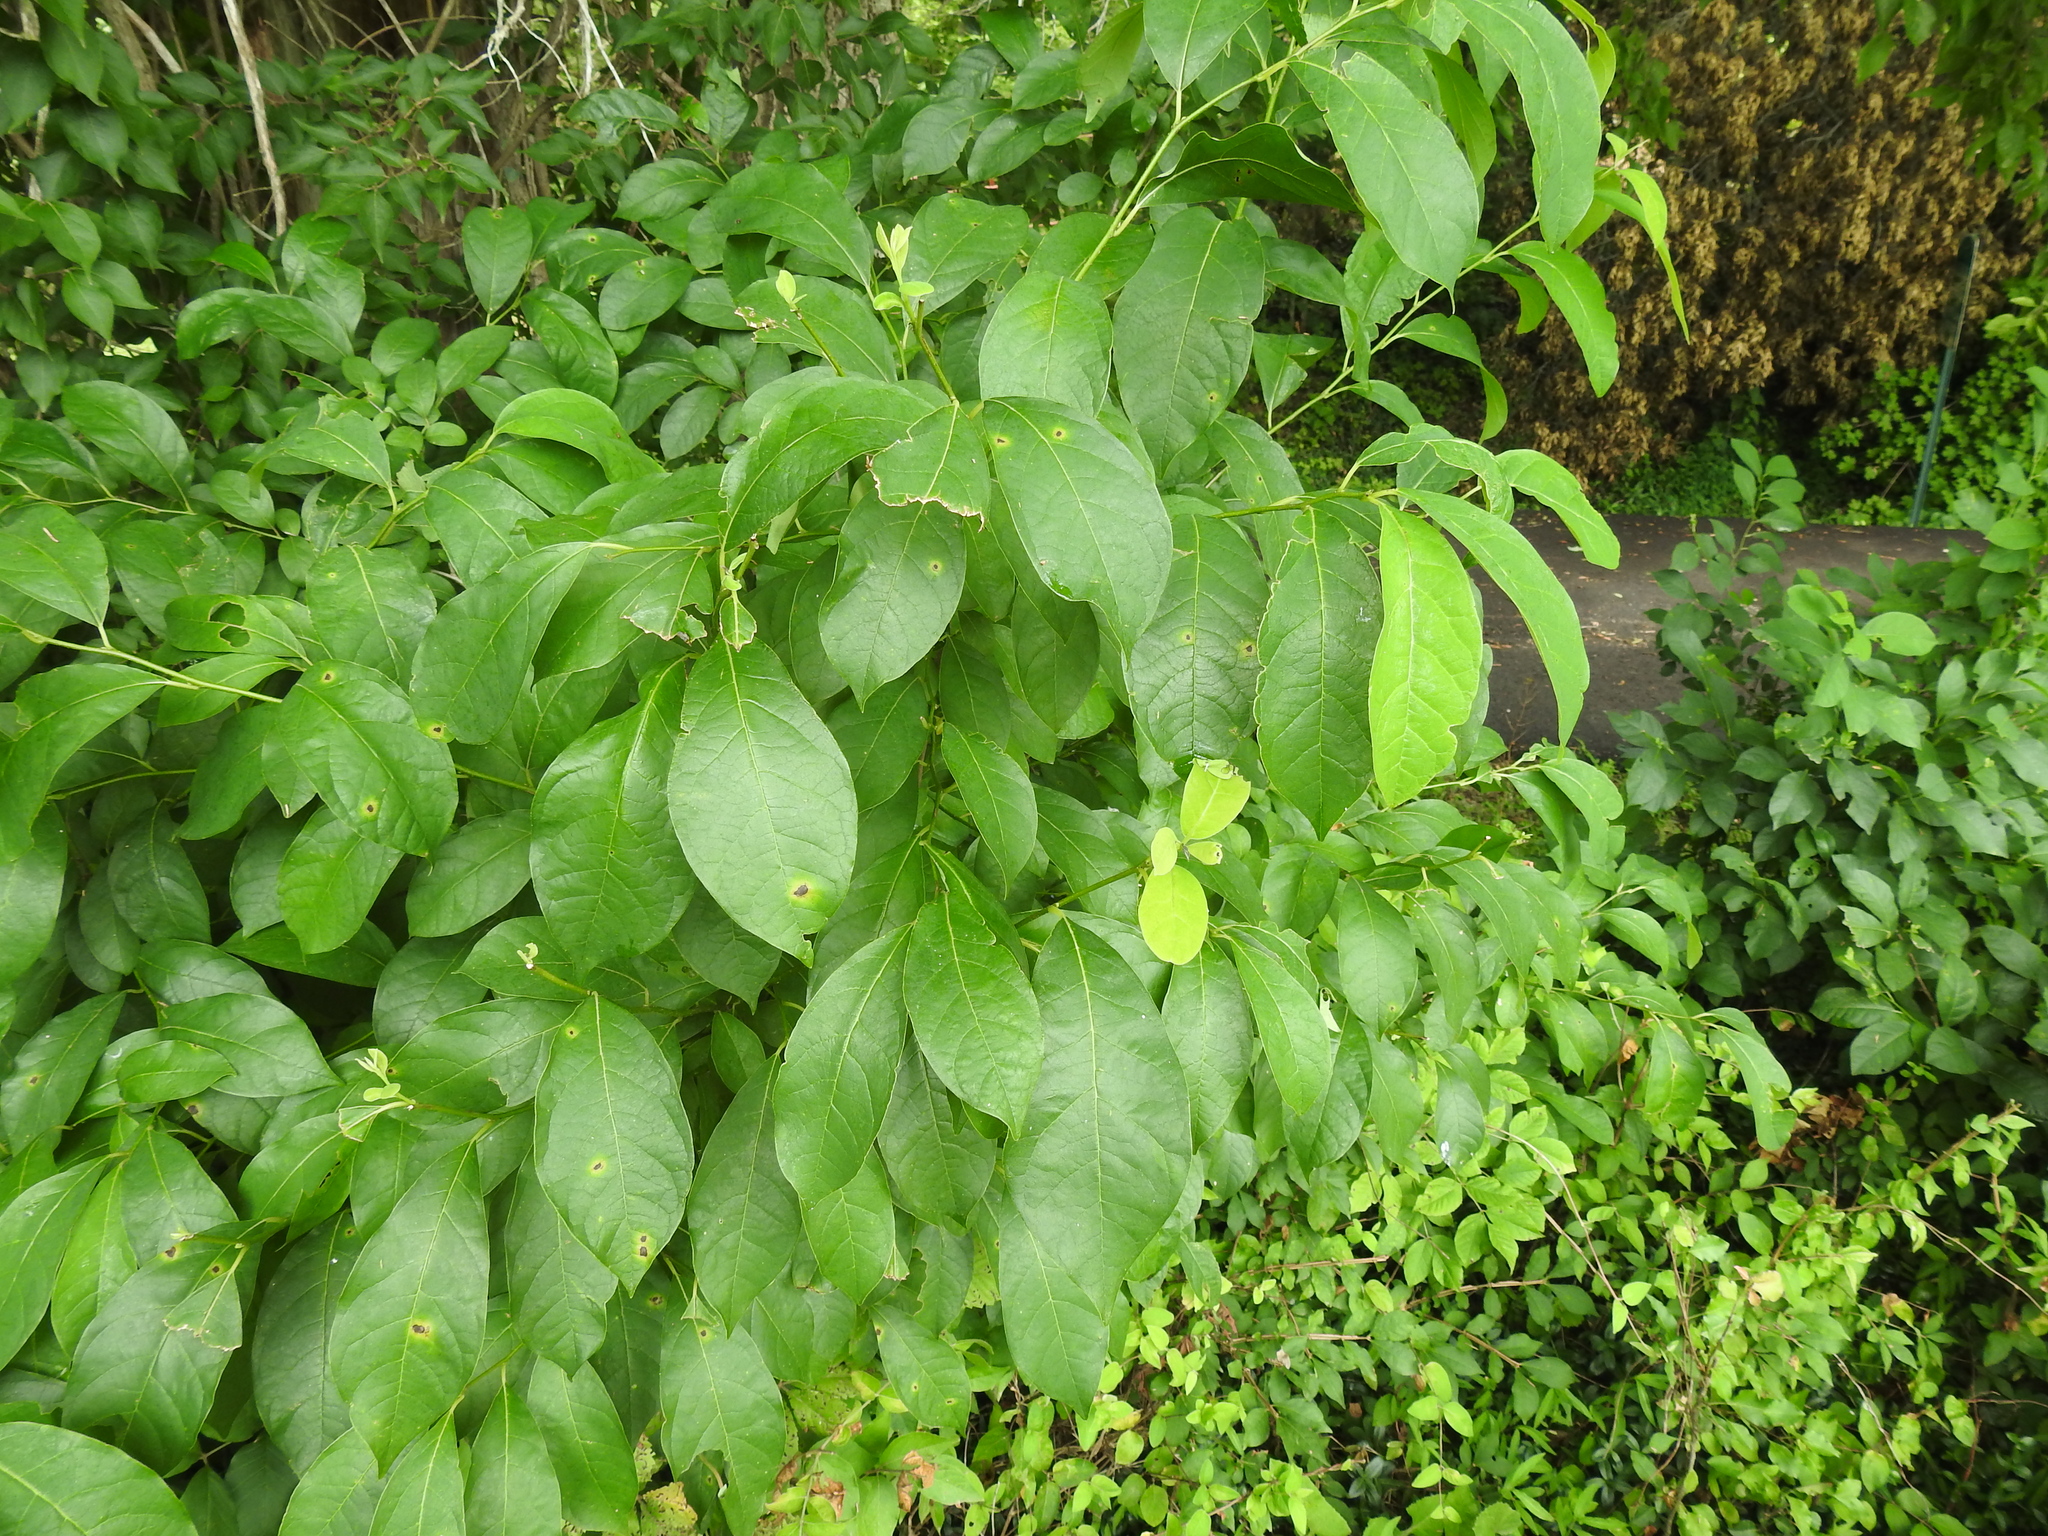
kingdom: Plantae
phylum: Tracheophyta
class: Magnoliopsida
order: Laurales
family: Lauraceae
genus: Lindera
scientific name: Lindera benzoin
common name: Spicebush
